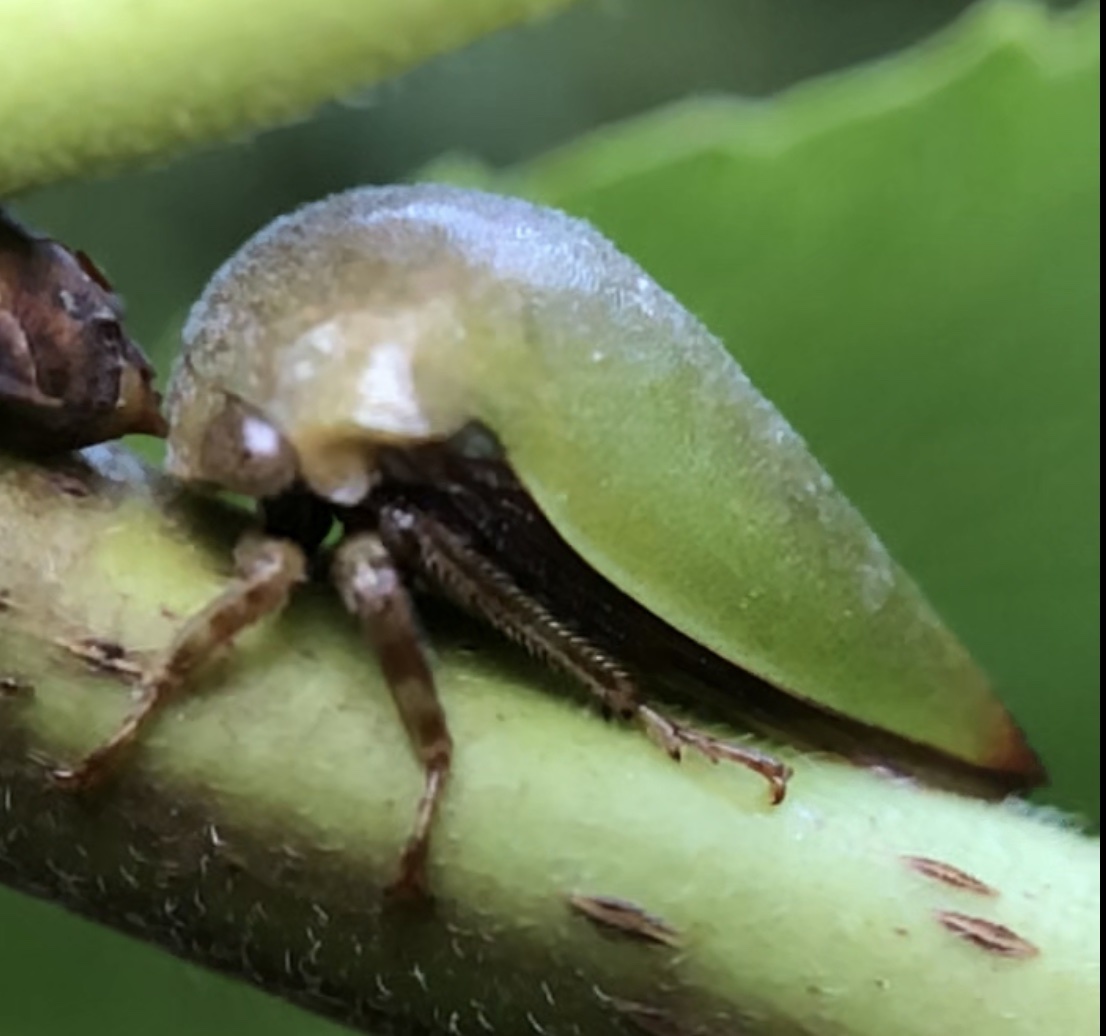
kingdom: Animalia
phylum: Arthropoda
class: Insecta
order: Hemiptera
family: Membracidae
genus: Hebetica
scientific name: Hebetica
